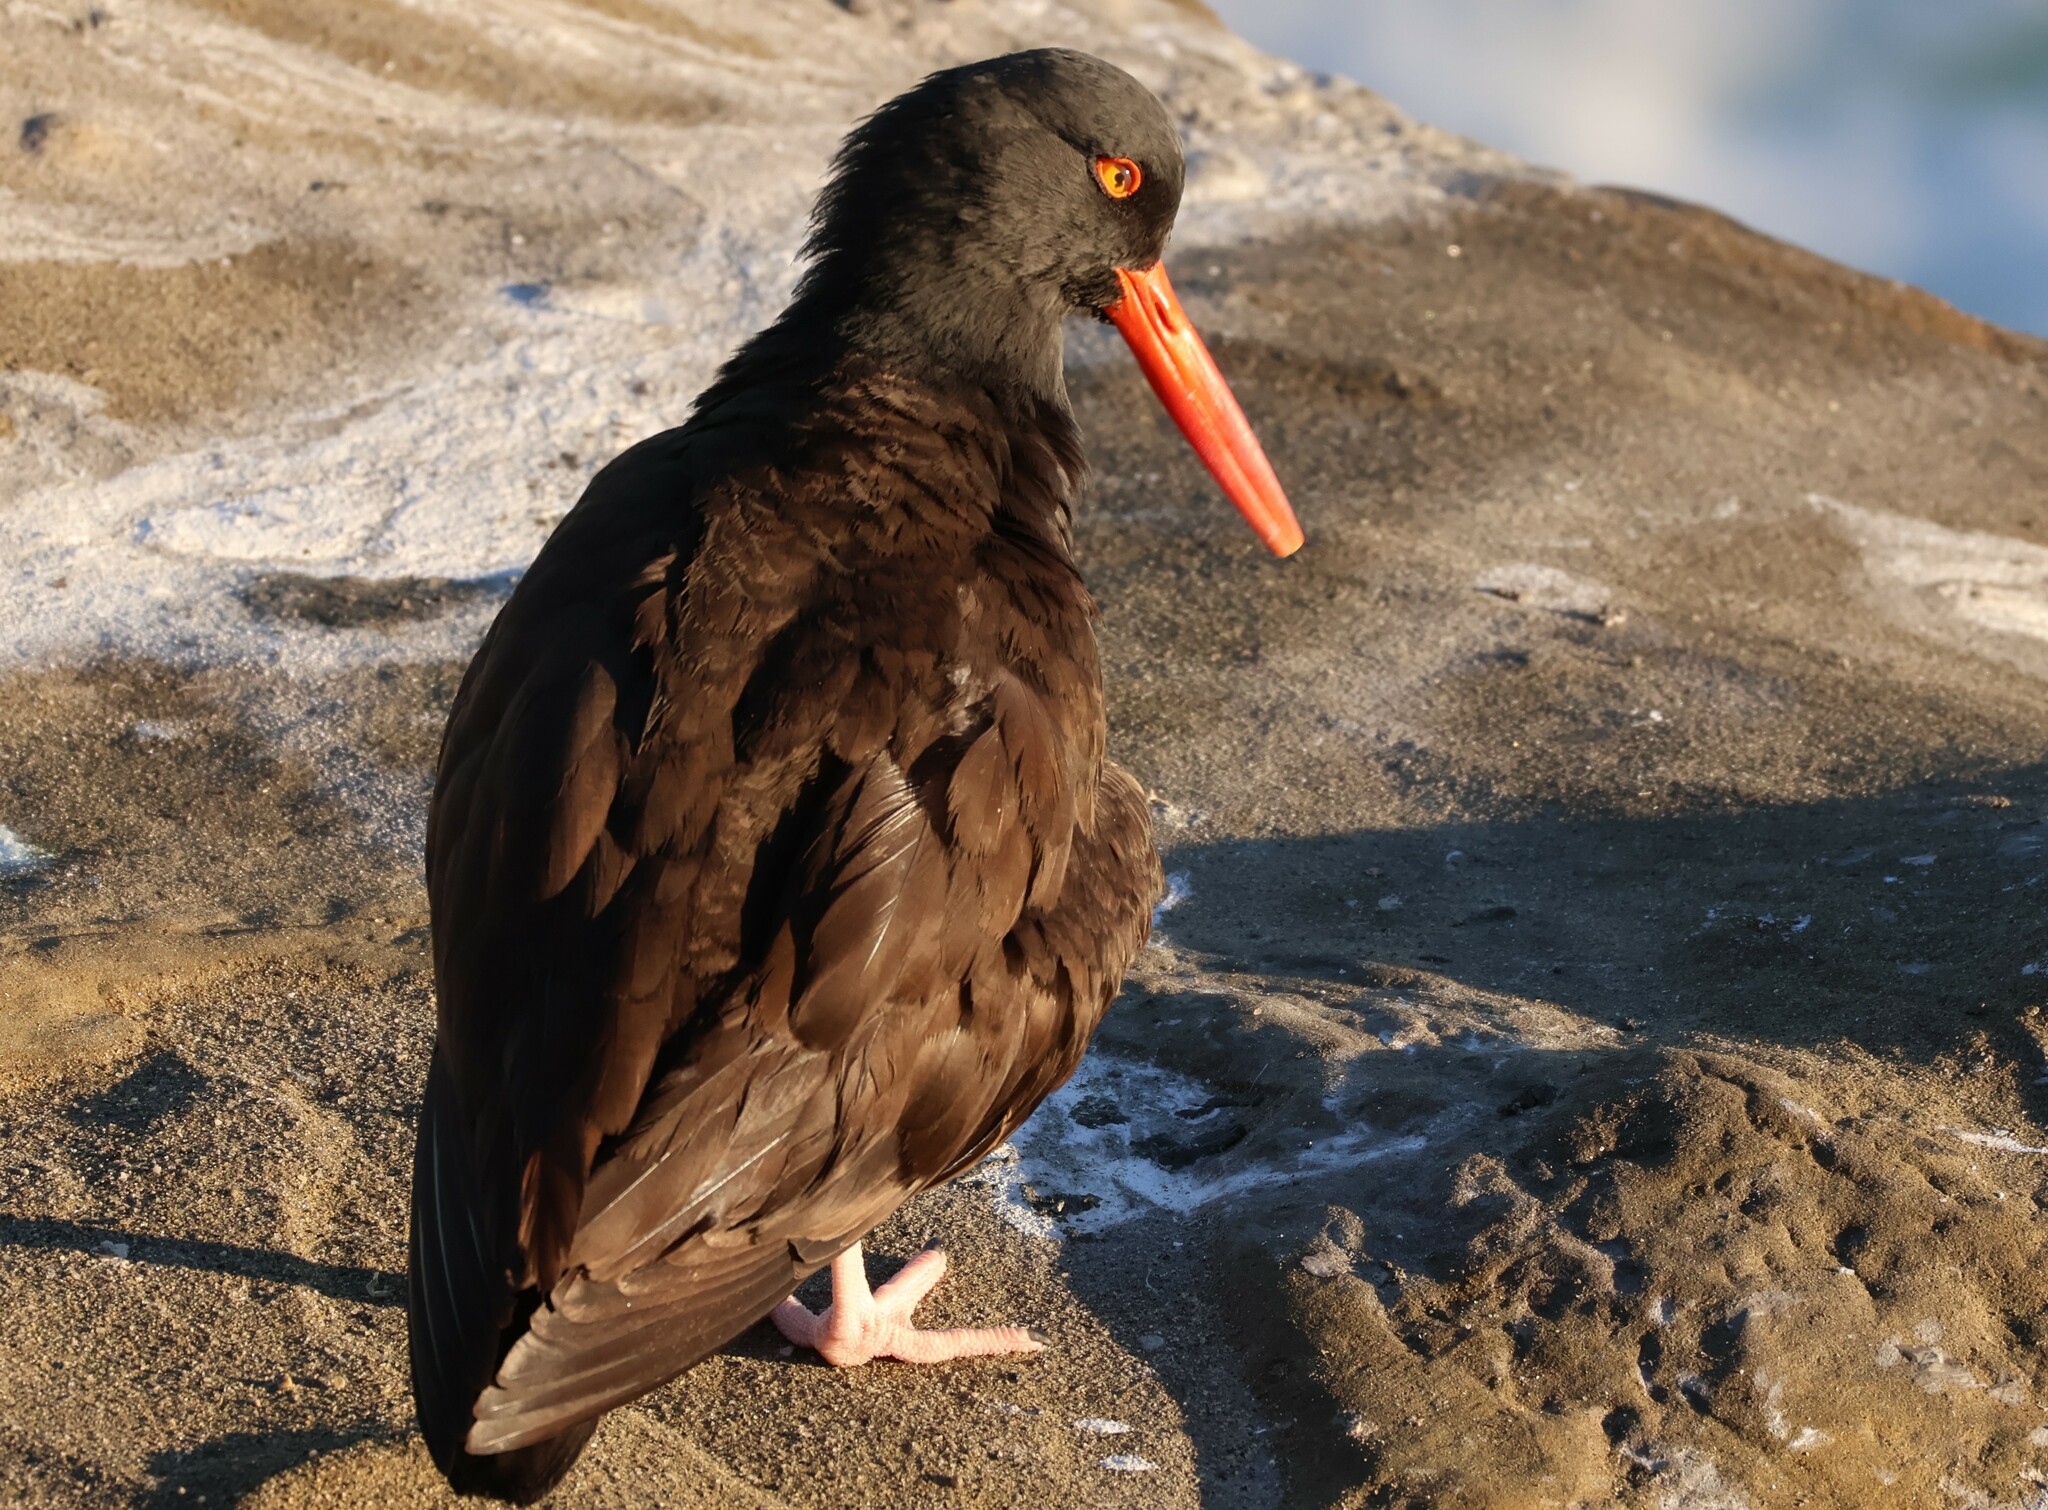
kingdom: Animalia
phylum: Chordata
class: Aves
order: Charadriiformes
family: Haematopodidae
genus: Haematopus
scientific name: Haematopus bachmani
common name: Black oystercatcher
